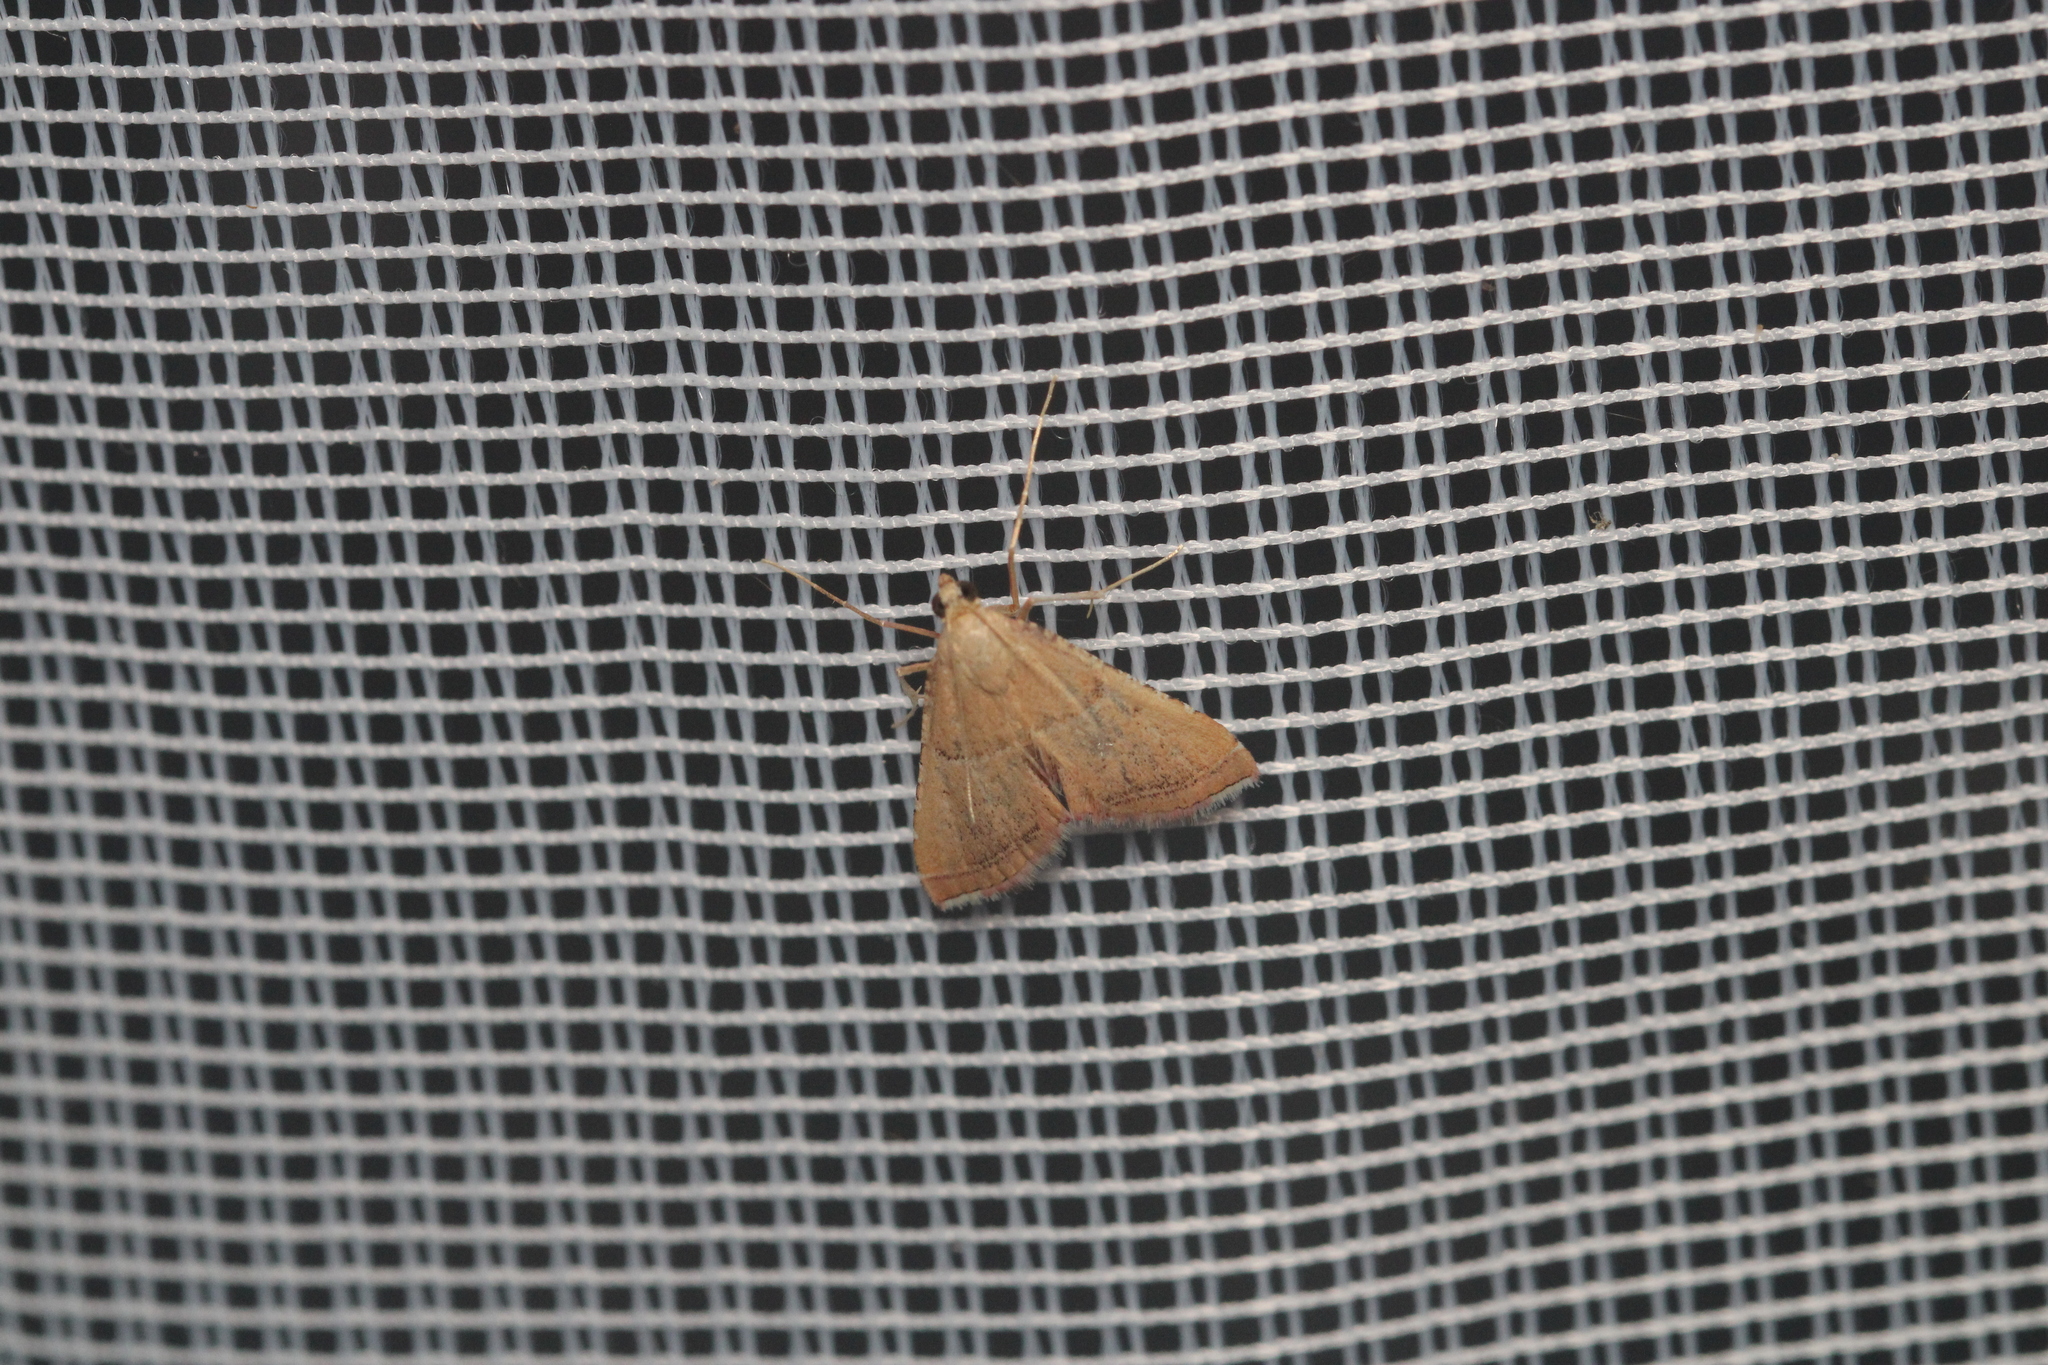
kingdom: Animalia
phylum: Arthropoda
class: Insecta
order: Lepidoptera
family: Pyralidae
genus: Endotricha
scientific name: Endotricha flammealis
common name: Rosy tabby
